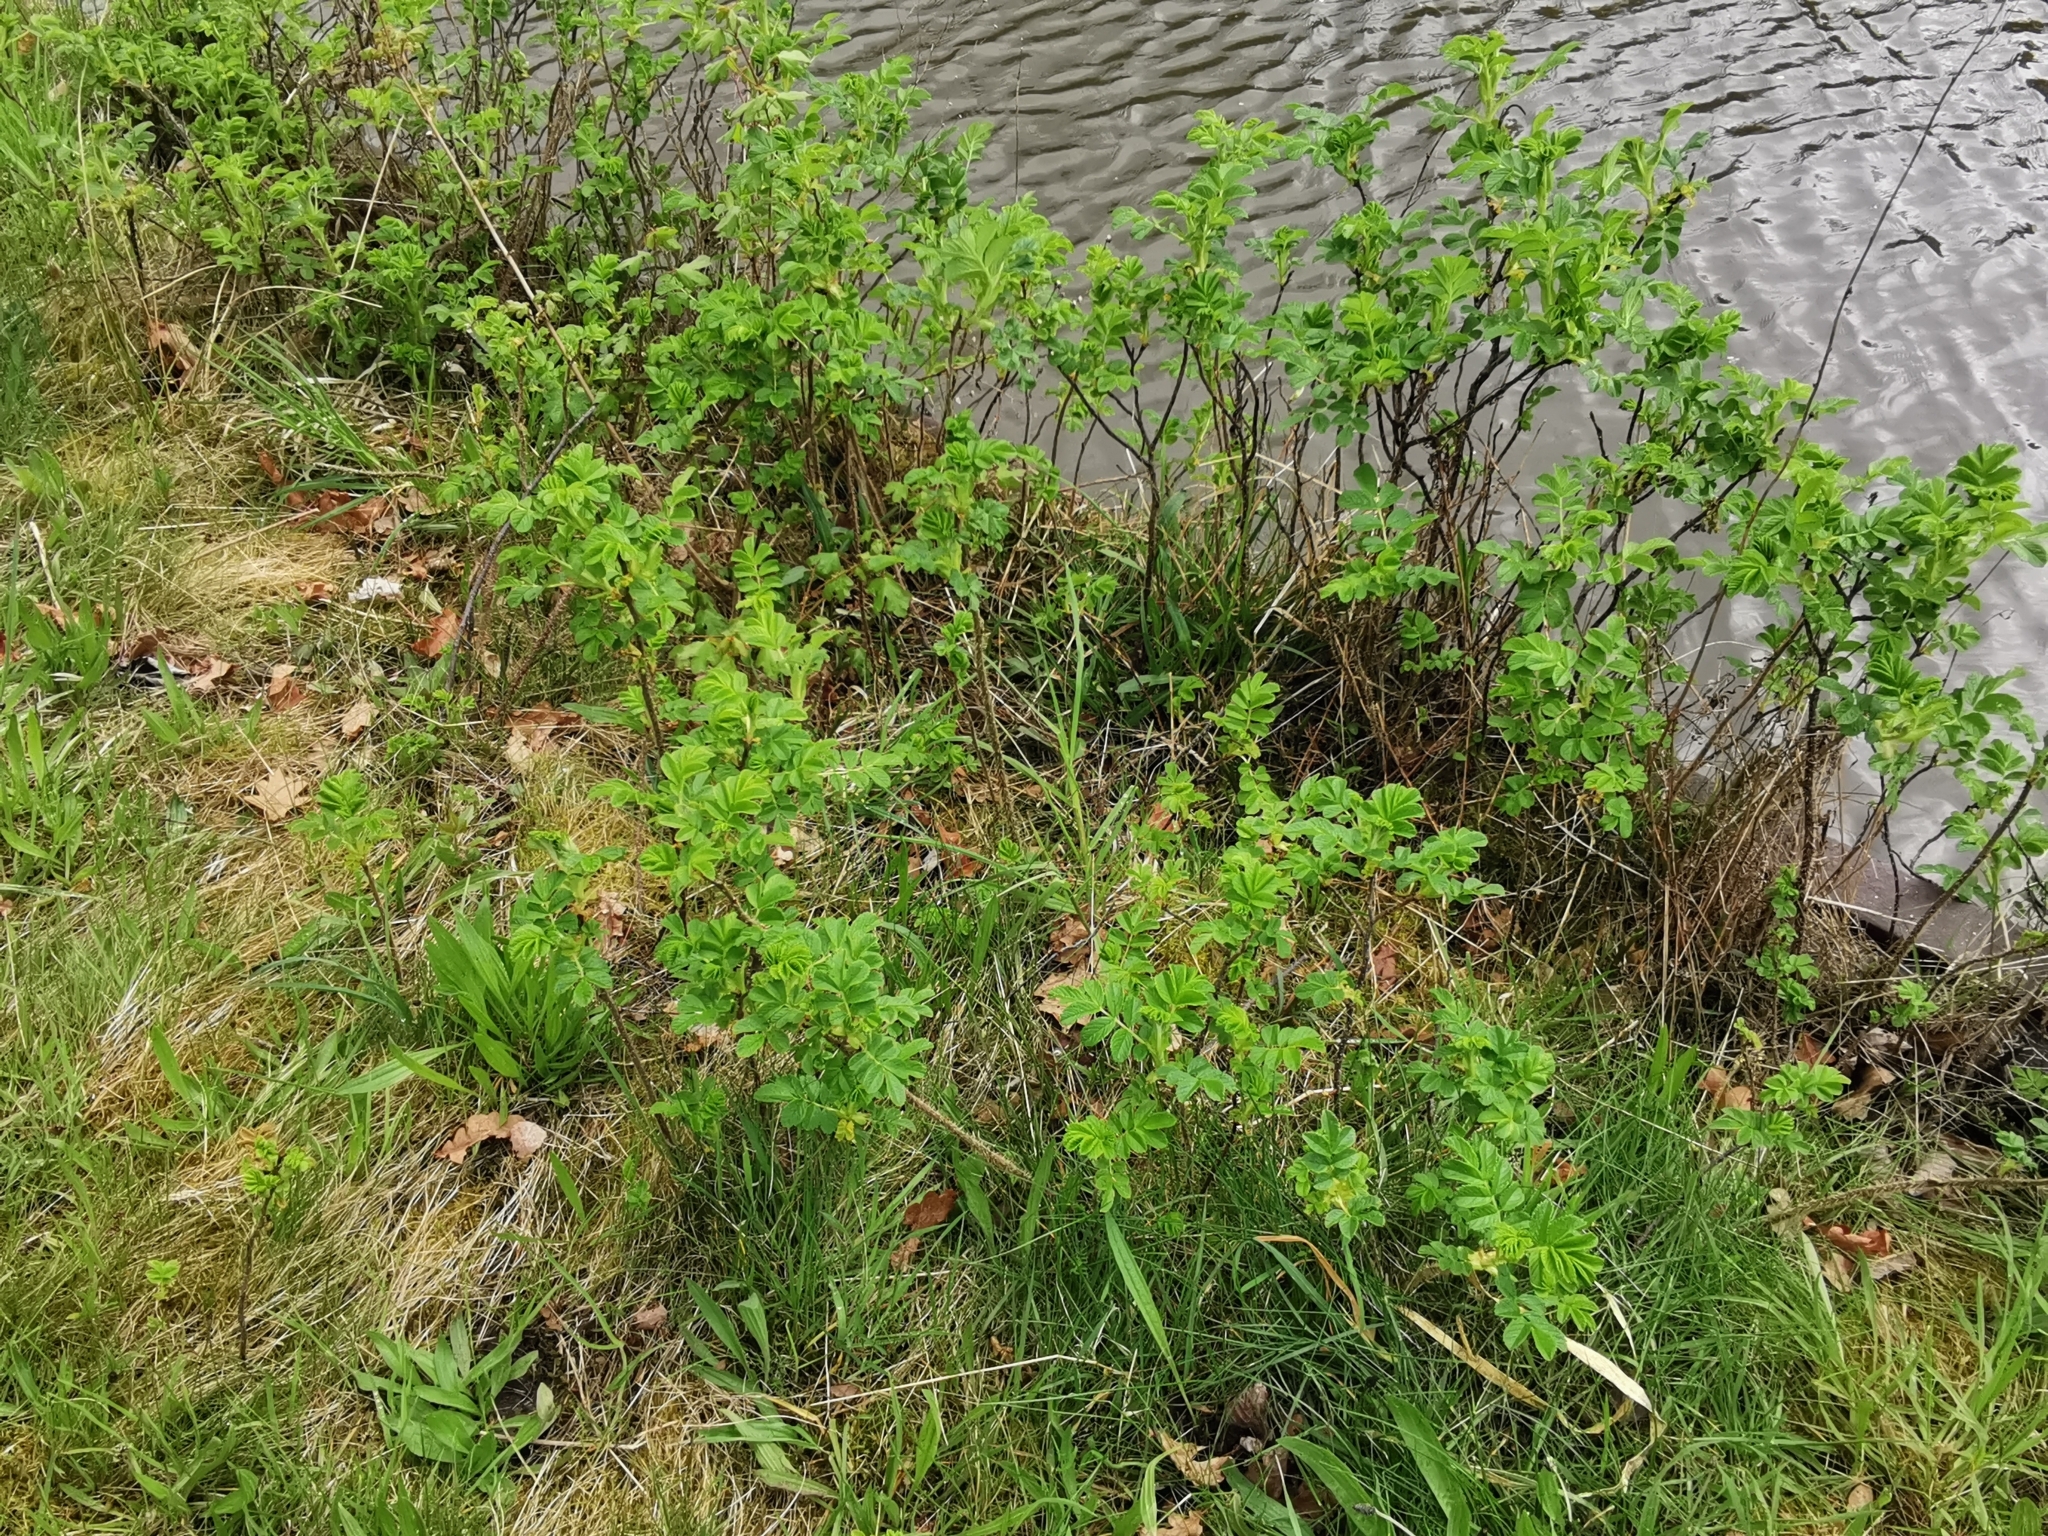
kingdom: Plantae
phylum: Tracheophyta
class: Magnoliopsida
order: Rosales
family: Rosaceae
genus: Rosa
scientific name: Rosa rugosa
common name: Japanese rose
